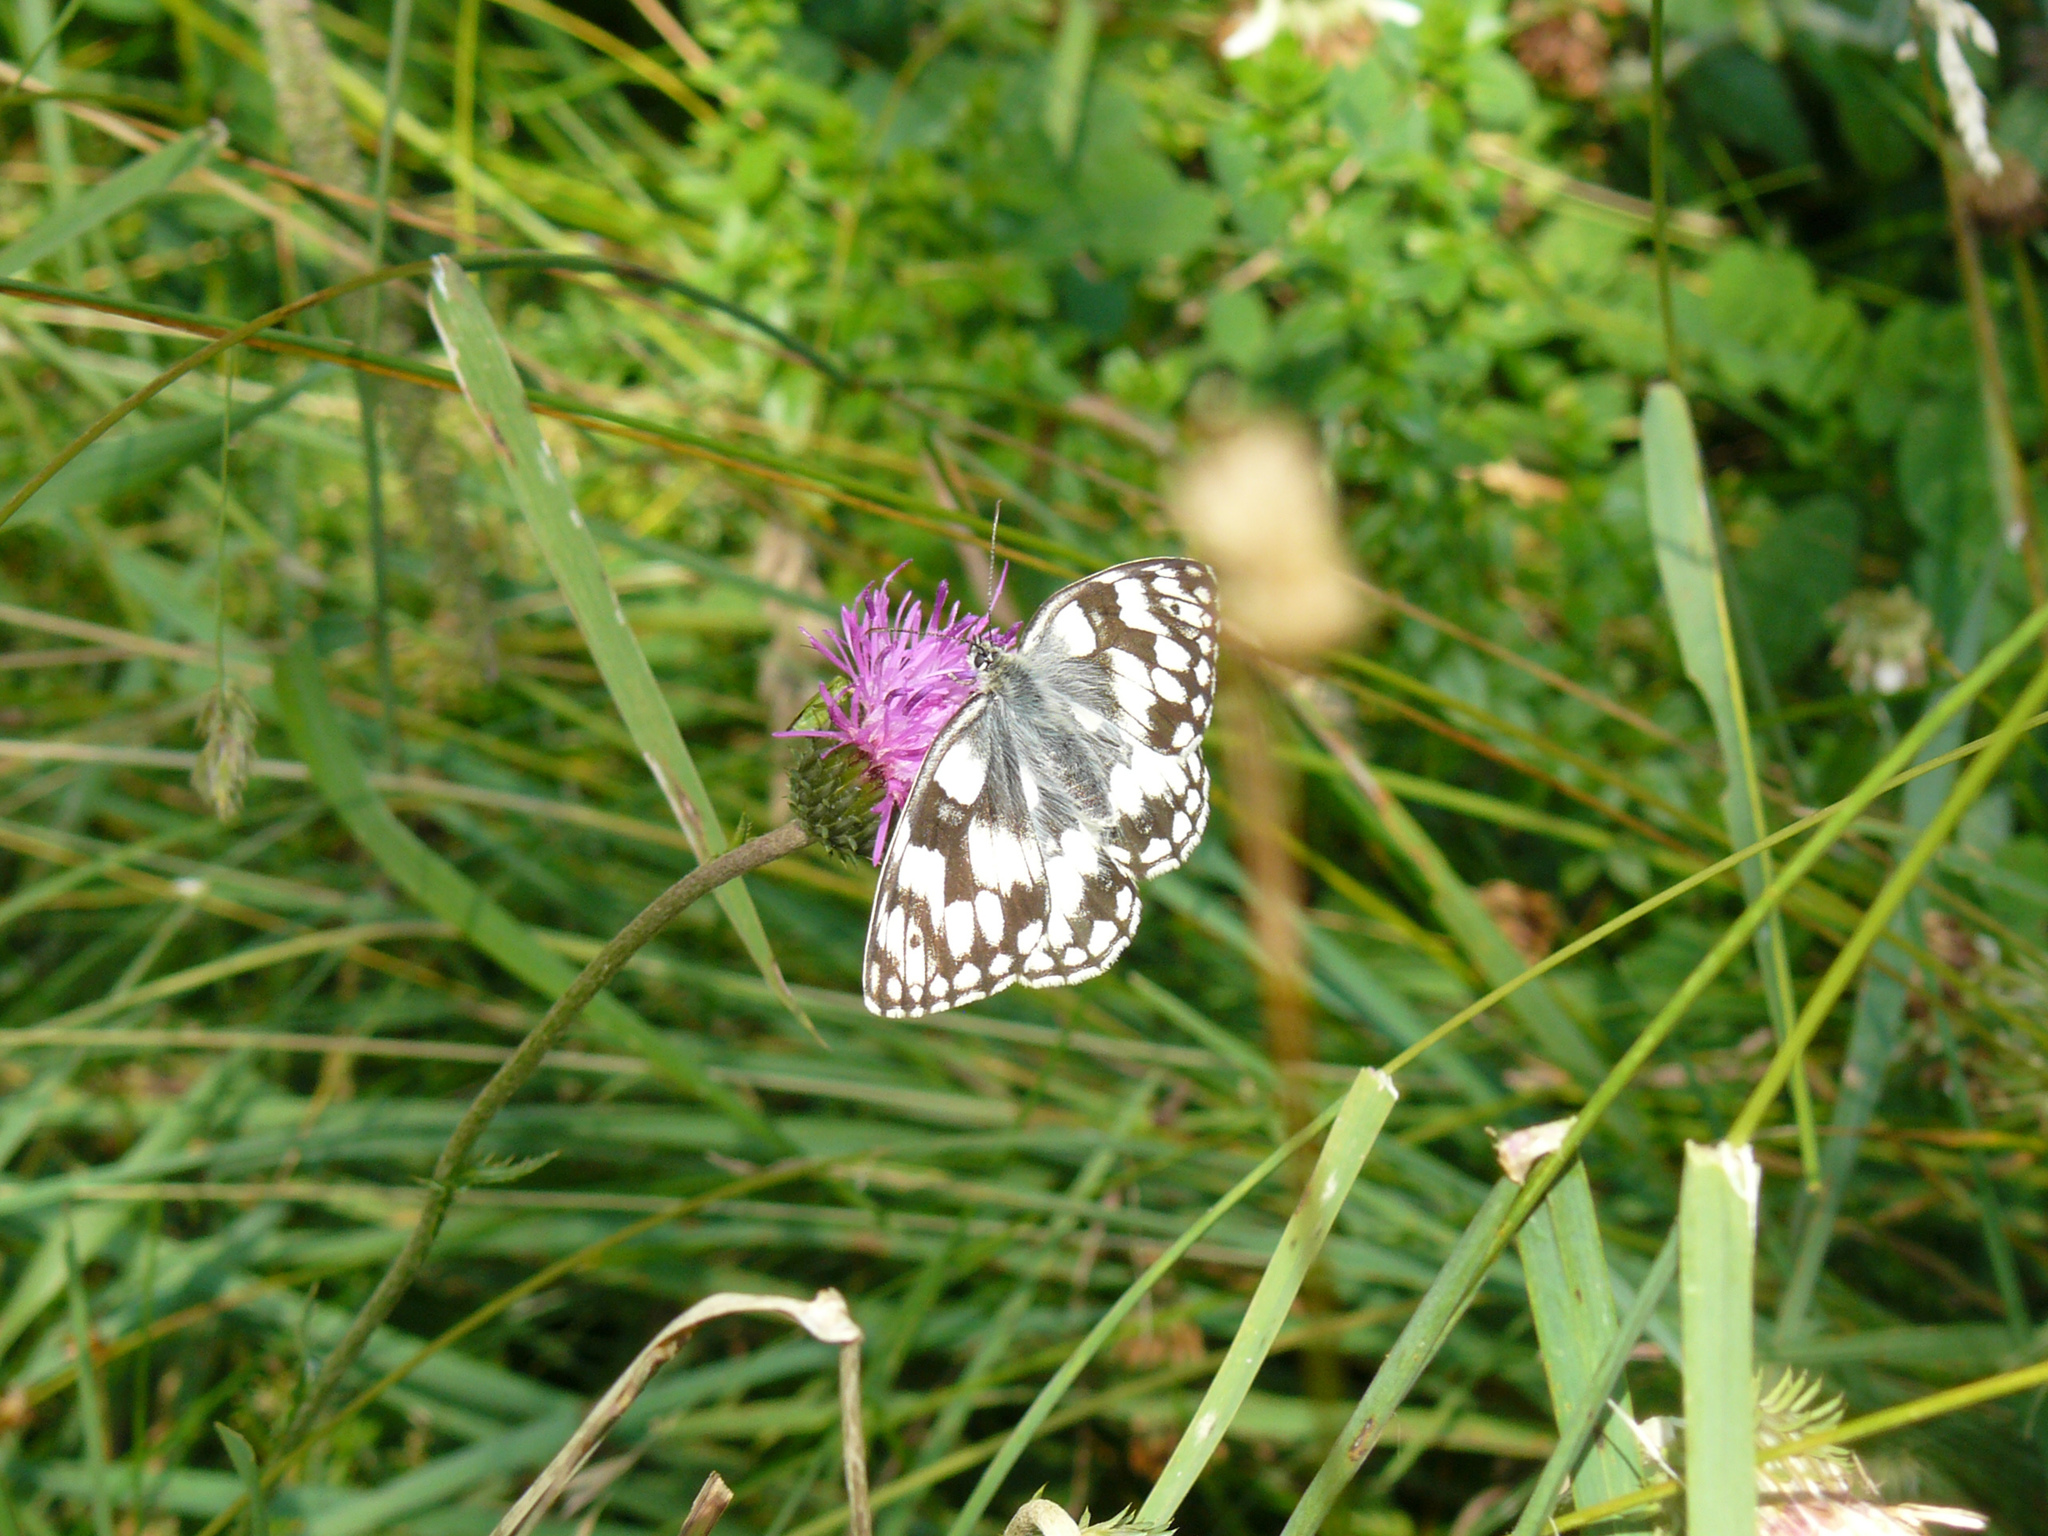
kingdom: Animalia
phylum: Arthropoda
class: Insecta
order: Lepidoptera
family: Nymphalidae
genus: Melanargia
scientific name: Melanargia galathea
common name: Marbled white
